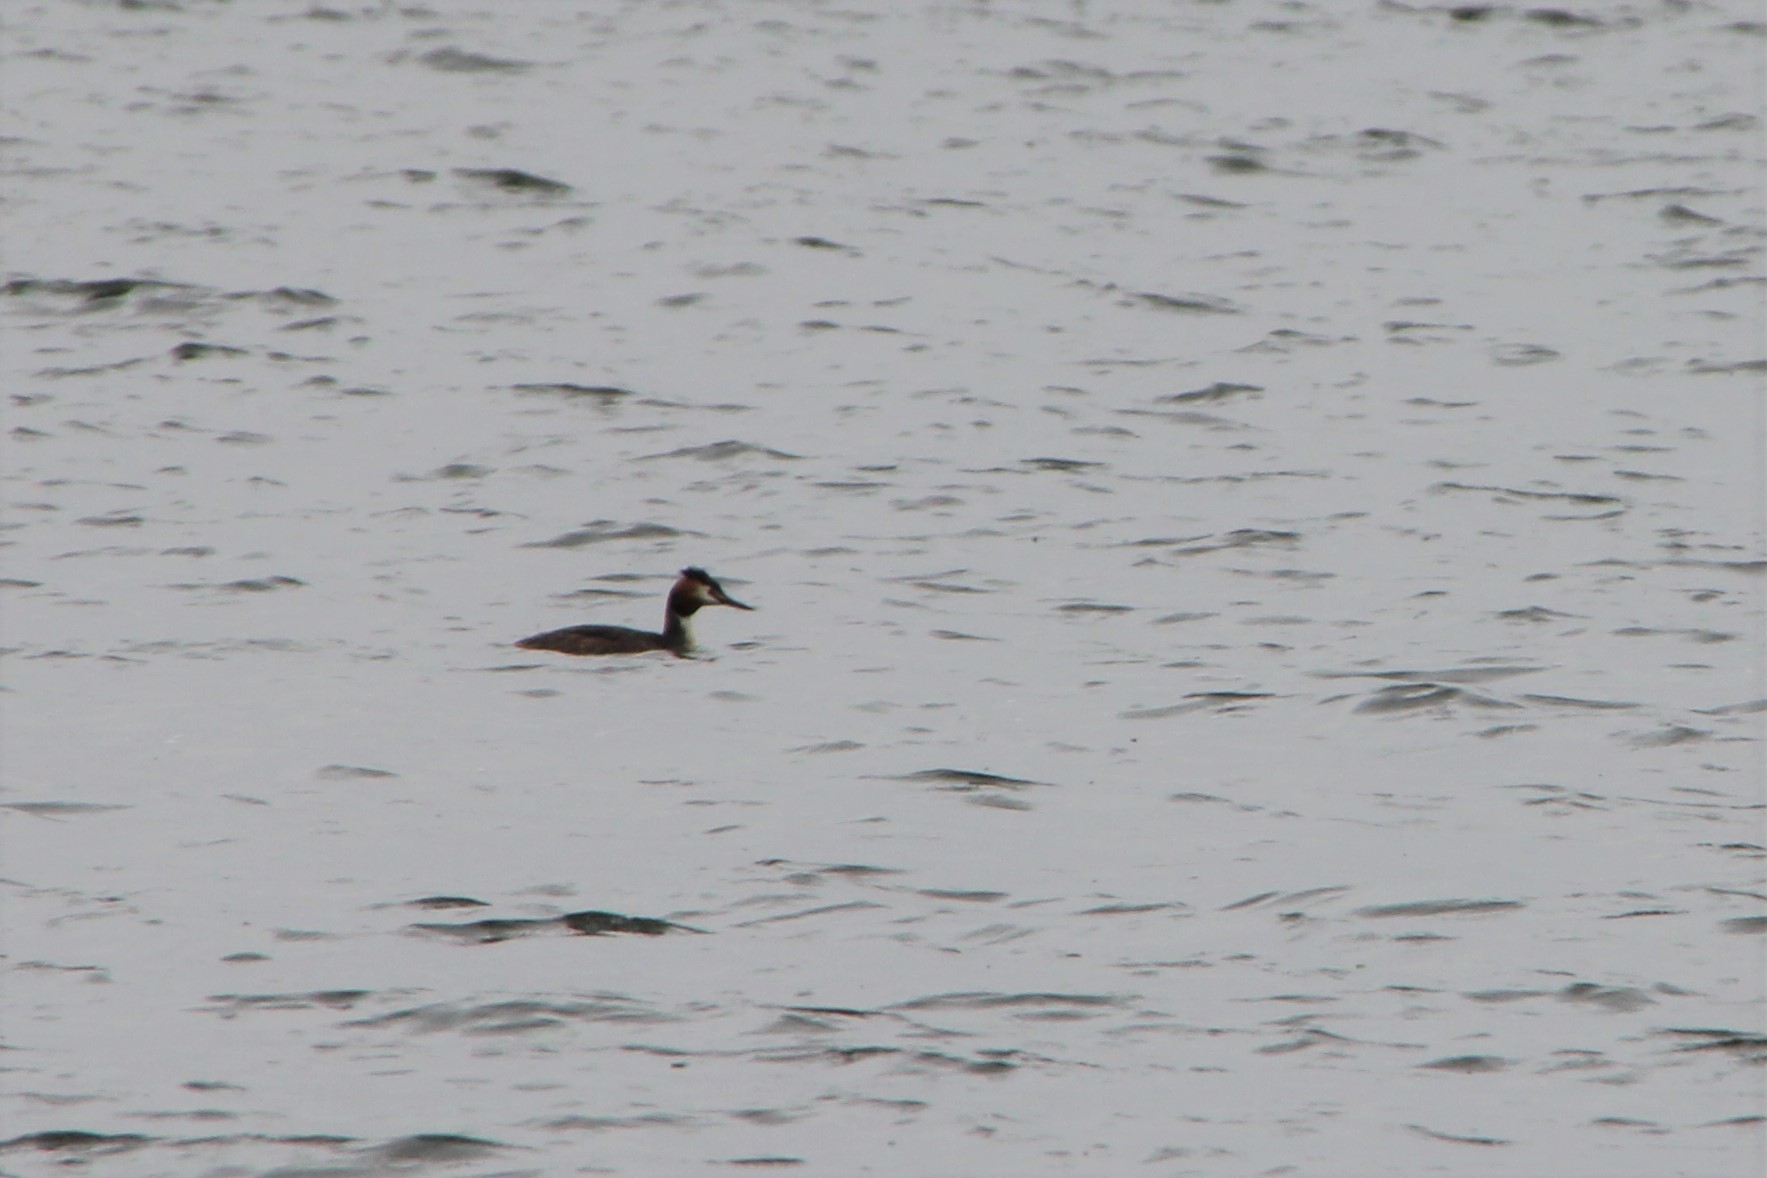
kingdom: Animalia
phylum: Chordata
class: Aves
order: Podicipediformes
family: Podicipedidae
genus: Podiceps
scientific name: Podiceps cristatus
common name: Great crested grebe
